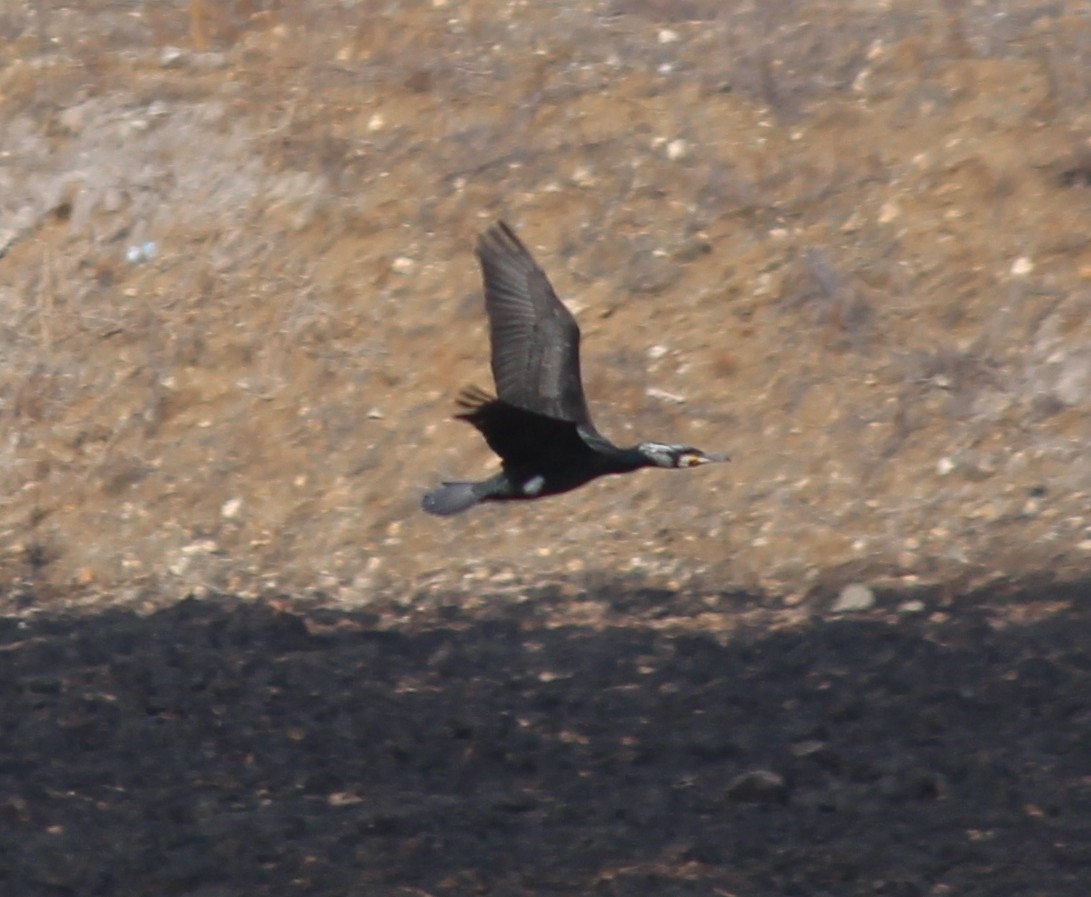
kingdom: Animalia
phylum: Chordata
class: Aves
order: Suliformes
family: Phalacrocoracidae
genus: Phalacrocorax
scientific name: Phalacrocorax carbo
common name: Great cormorant
